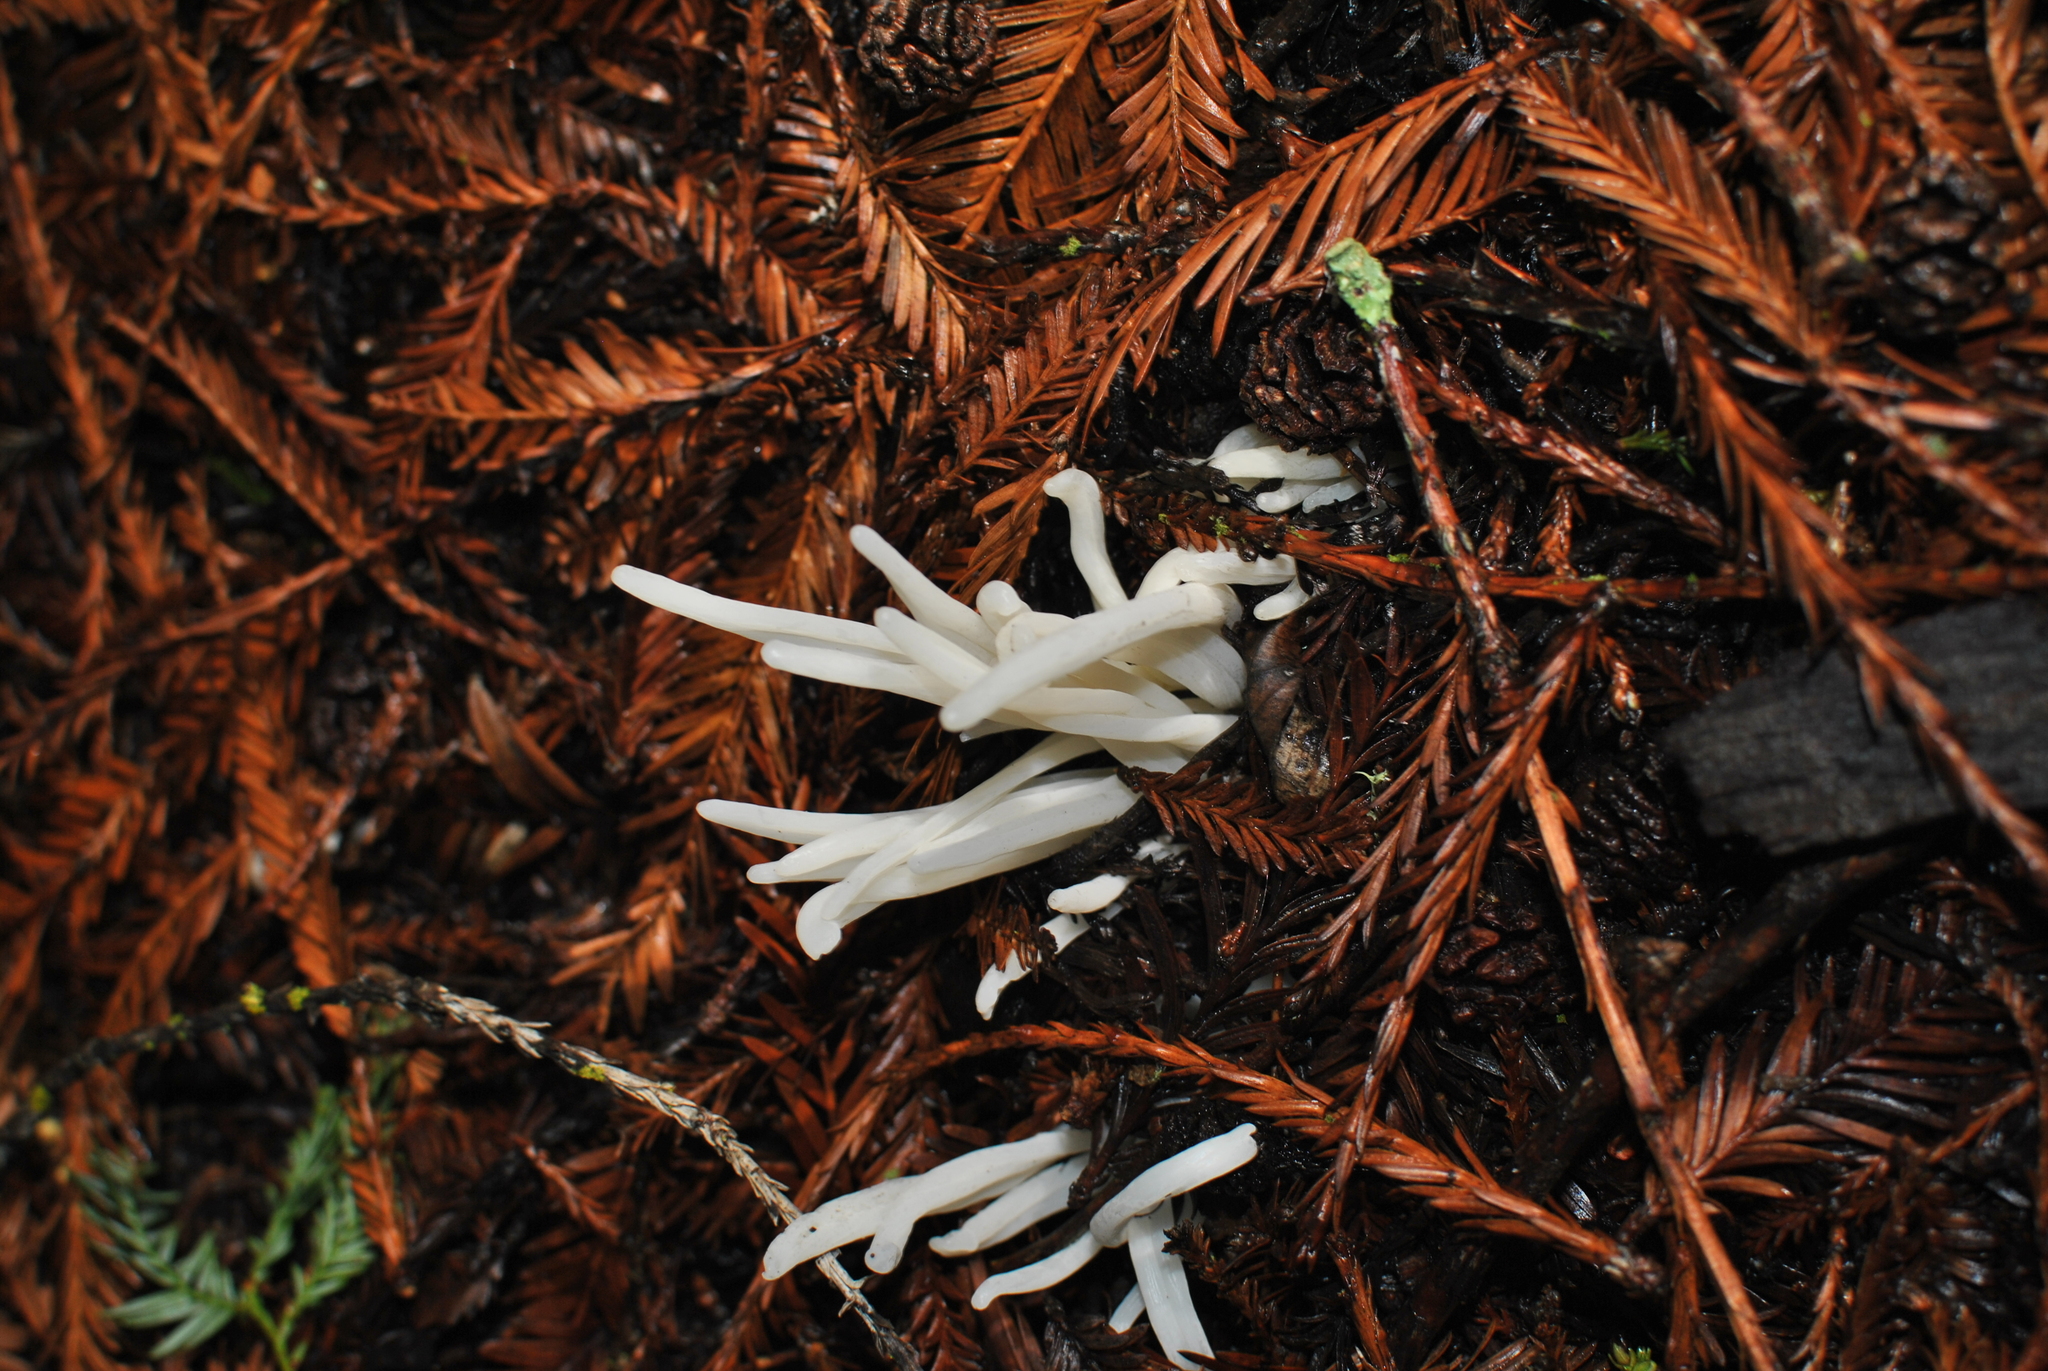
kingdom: Fungi
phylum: Basidiomycota
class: Agaricomycetes
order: Agaricales
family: Clavariaceae
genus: Clavaria
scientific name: Clavaria fragilis
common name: White spindles
